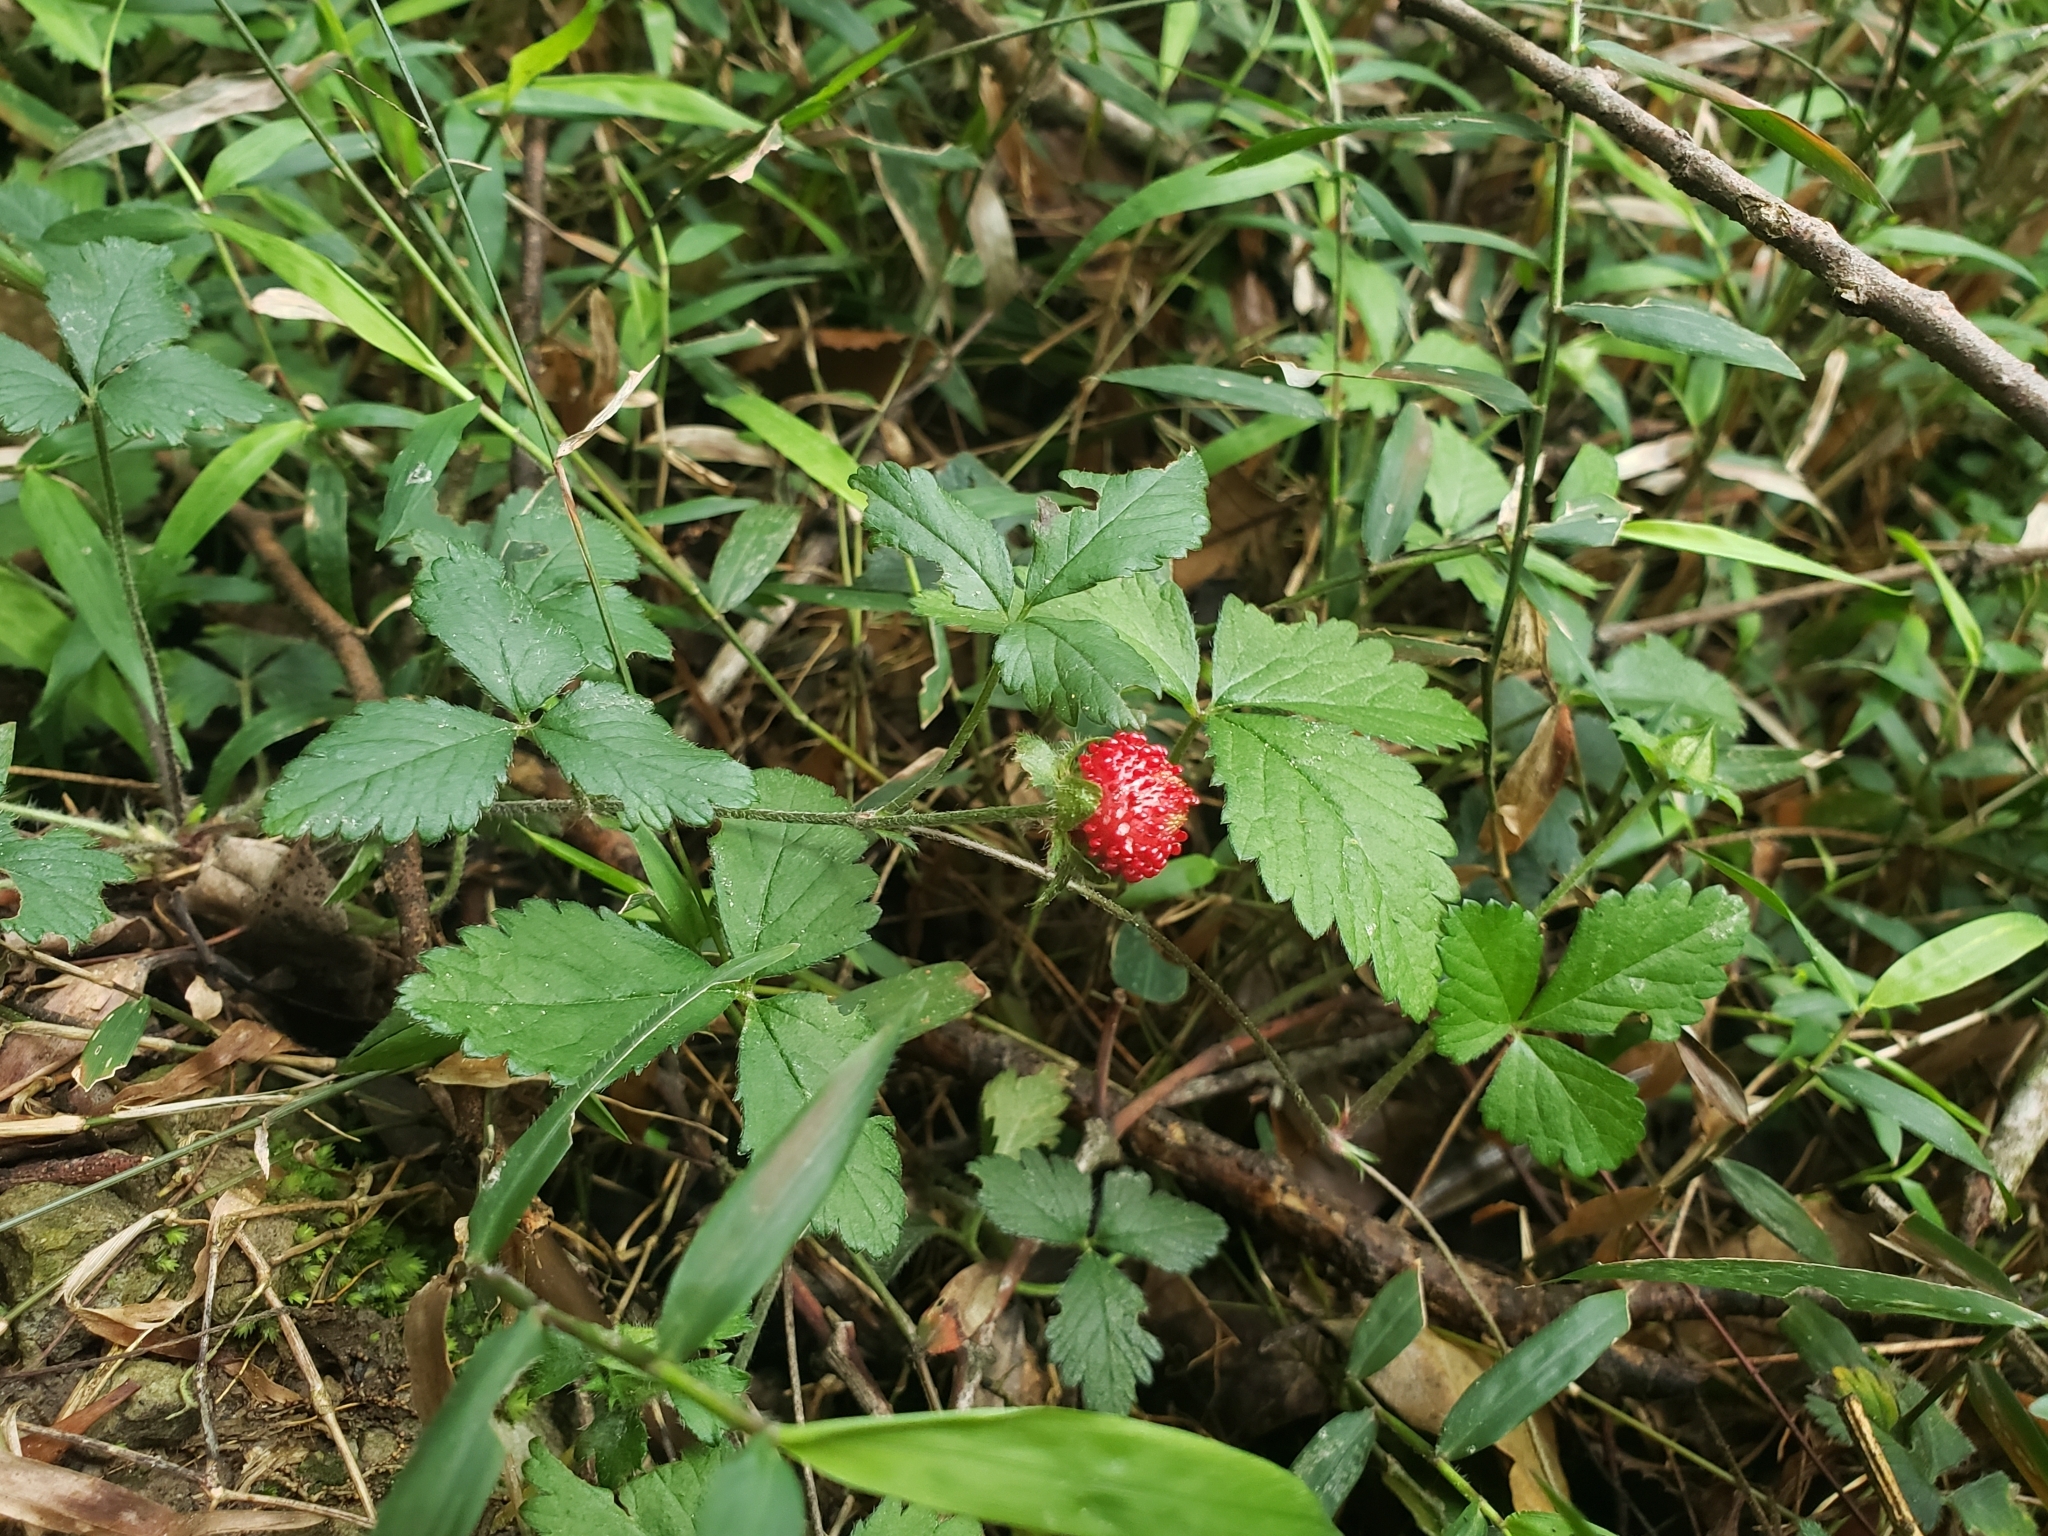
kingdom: Plantae
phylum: Tracheophyta
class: Magnoliopsida
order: Rosales
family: Rosaceae
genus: Potentilla
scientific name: Potentilla indica
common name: Yellow-flowered strawberry
